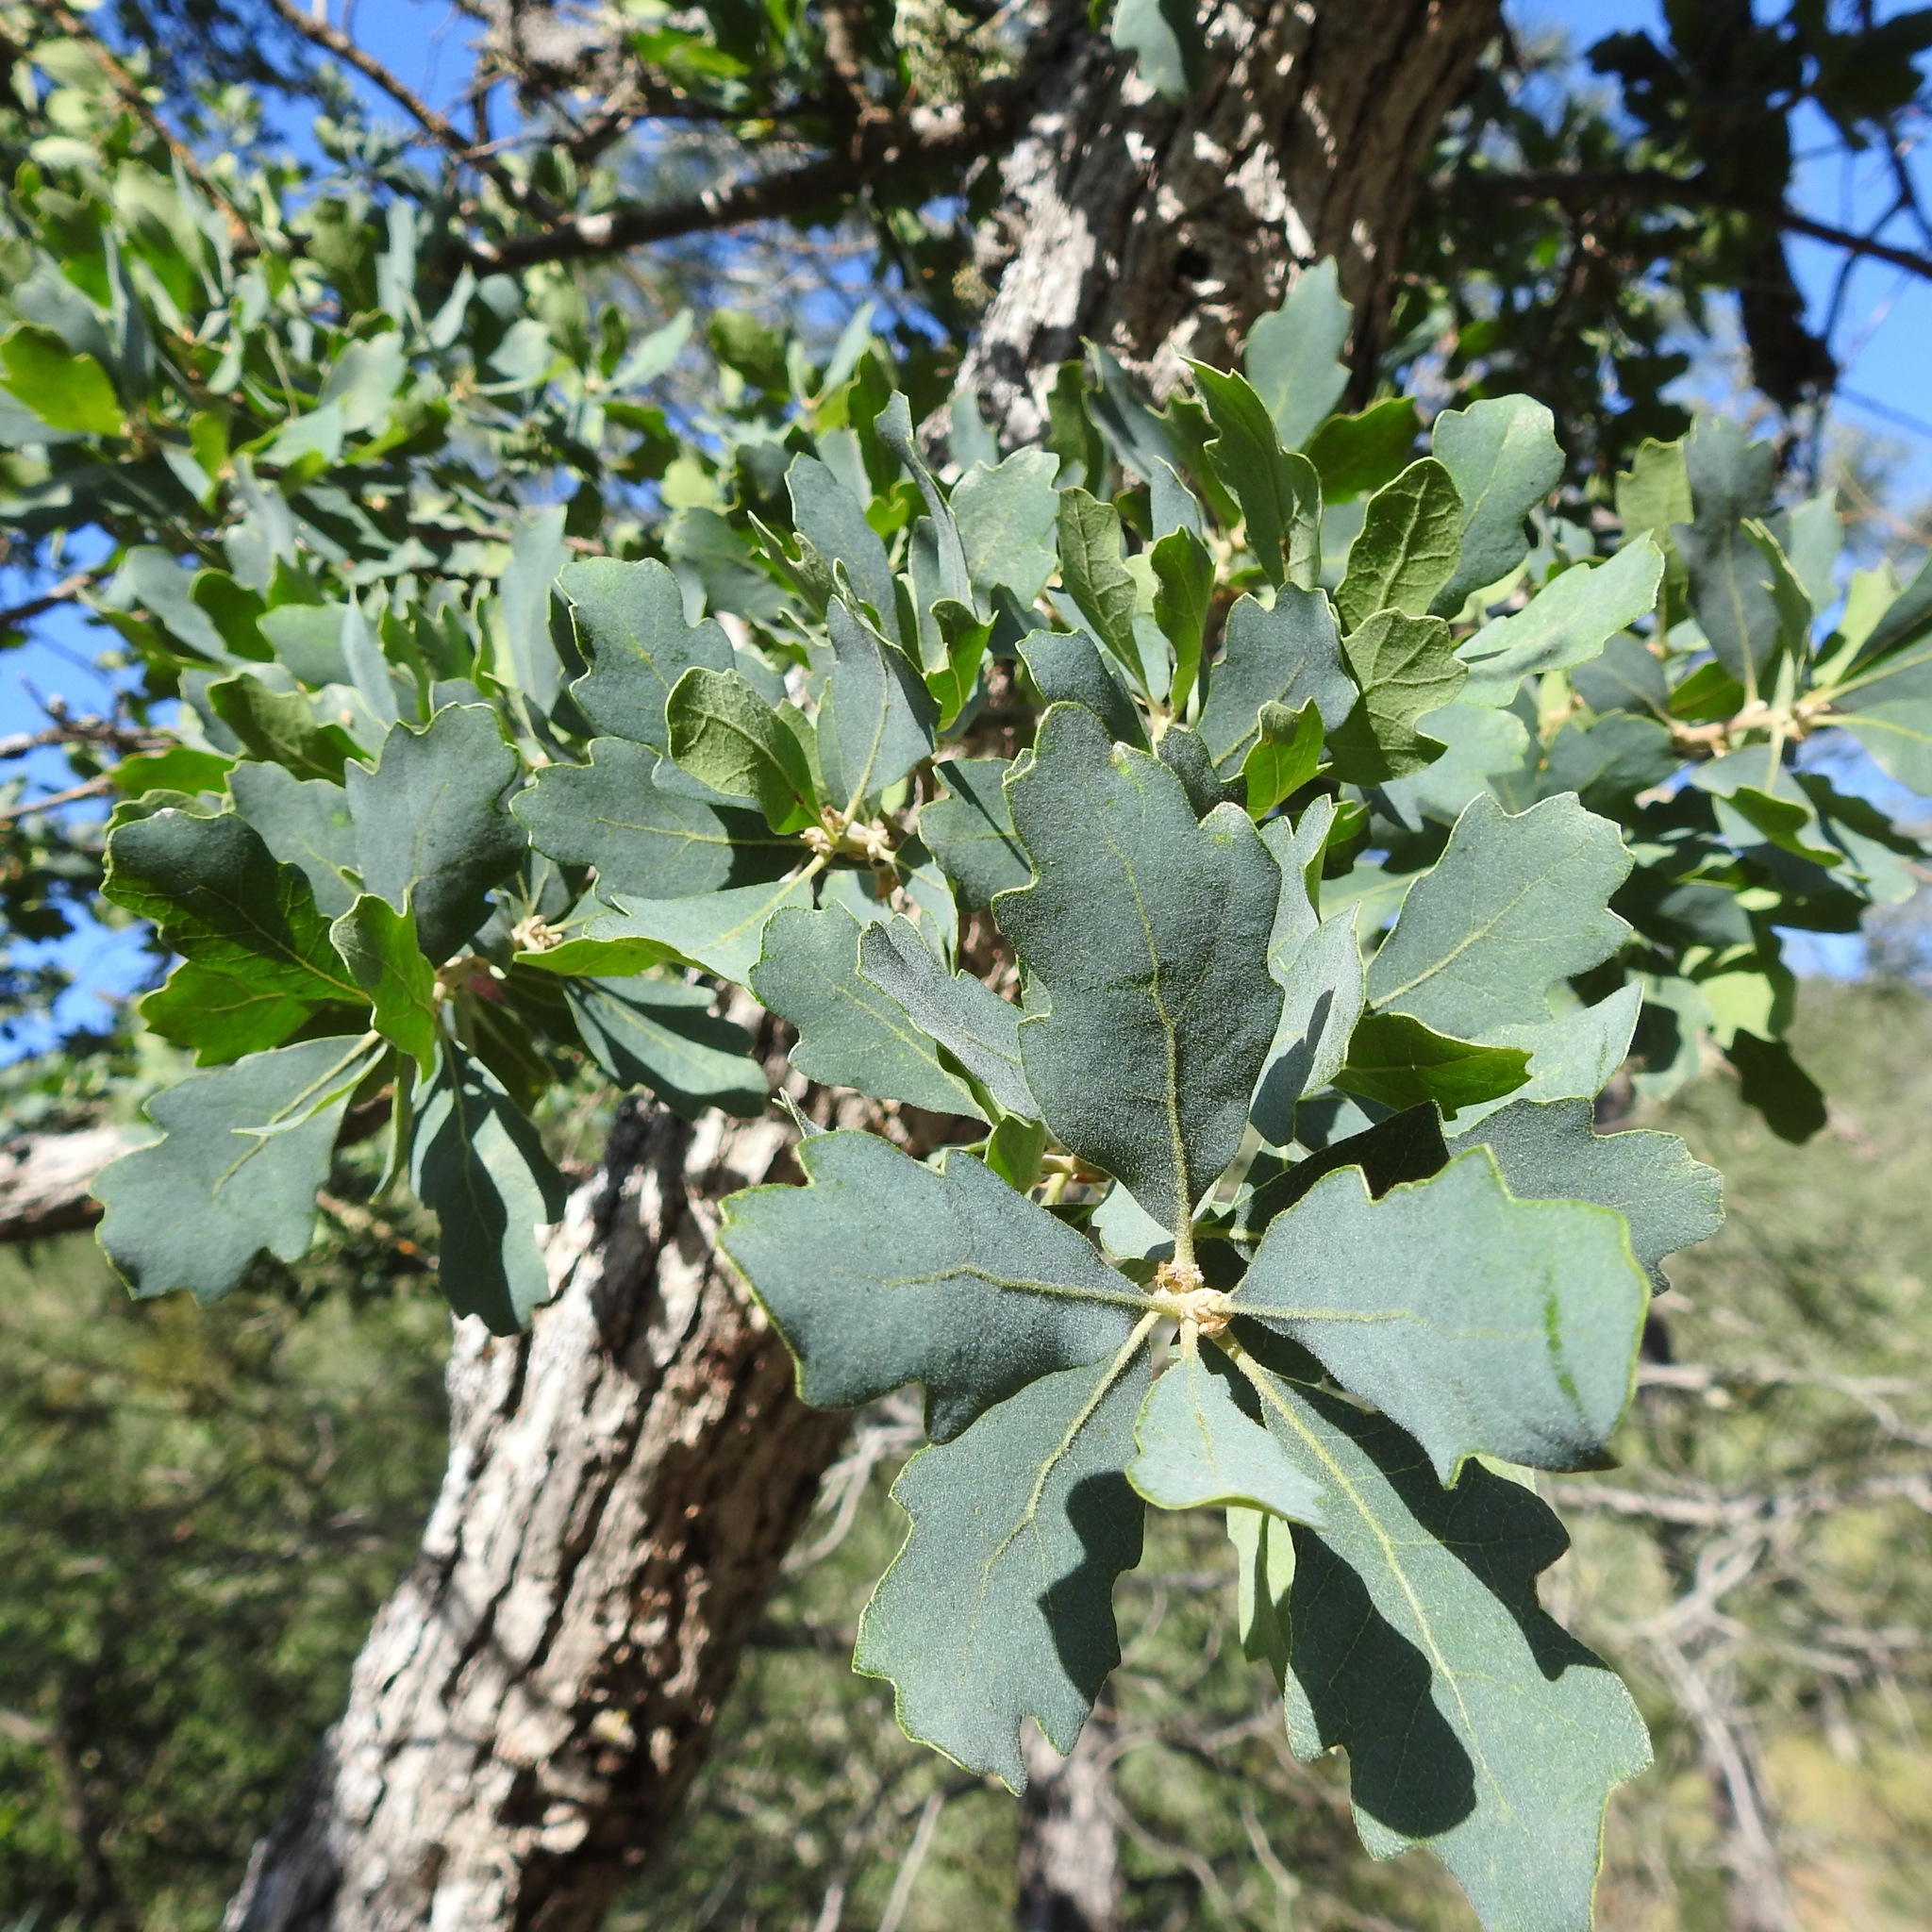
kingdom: Plantae
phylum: Tracheophyta
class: Magnoliopsida
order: Fagales
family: Fagaceae
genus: Quercus
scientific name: Quercus douglasii
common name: Blue oak
